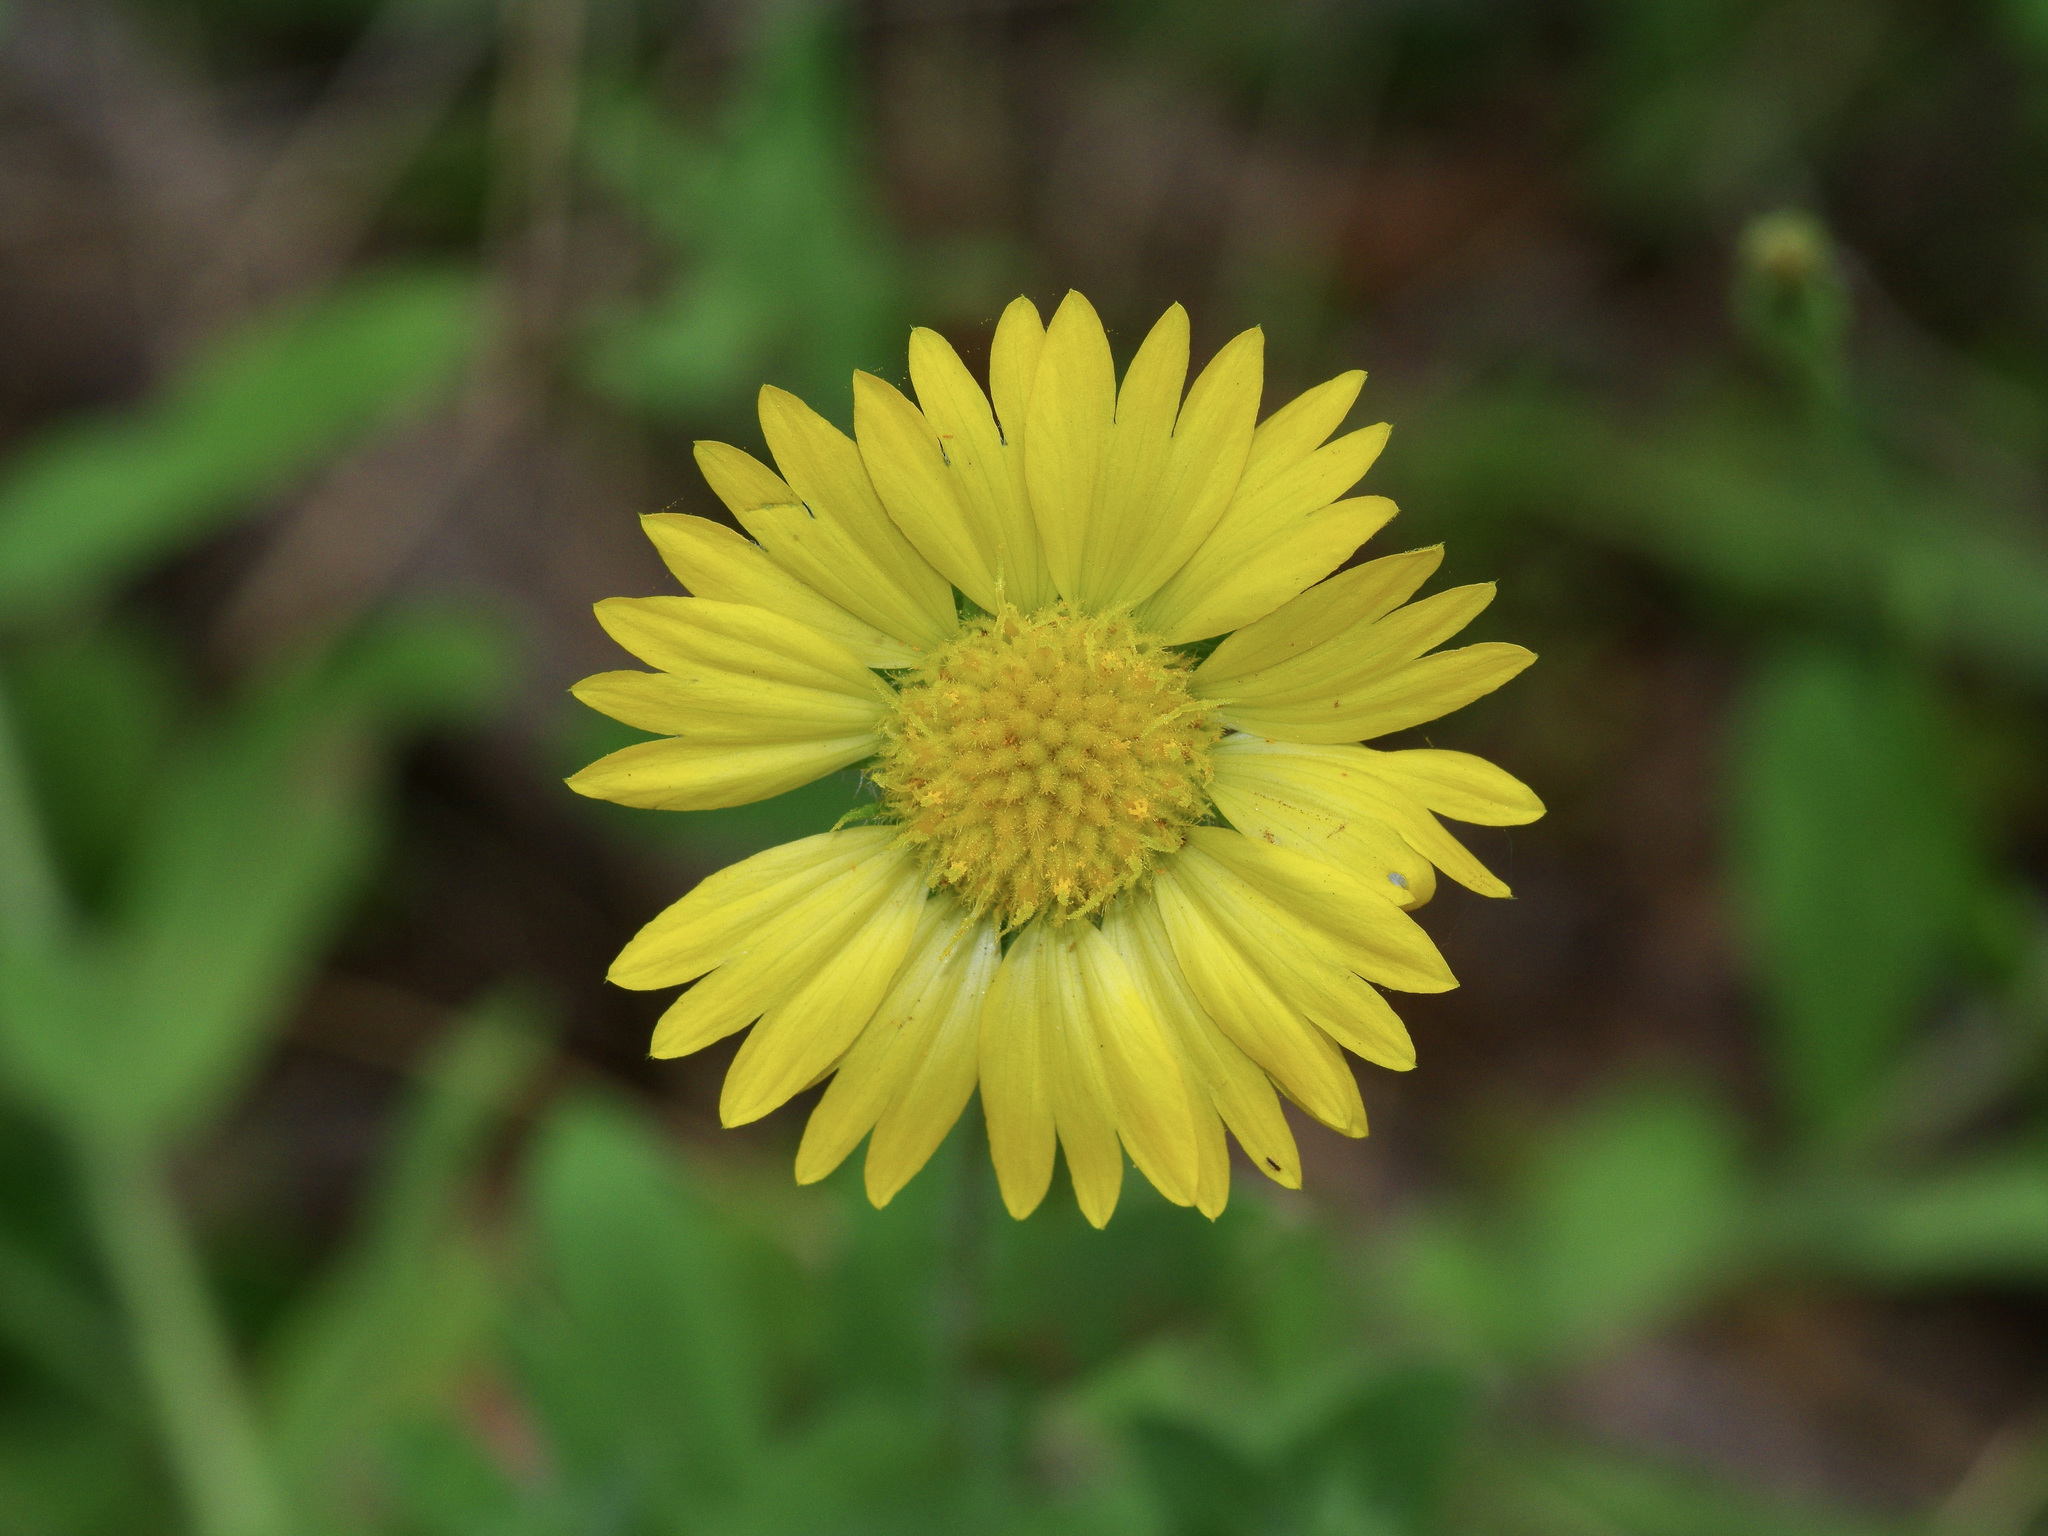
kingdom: Plantae
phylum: Tracheophyta
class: Magnoliopsida
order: Asterales
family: Asteraceae
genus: Gaillardia
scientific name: Gaillardia pulchella
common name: Firewheel
